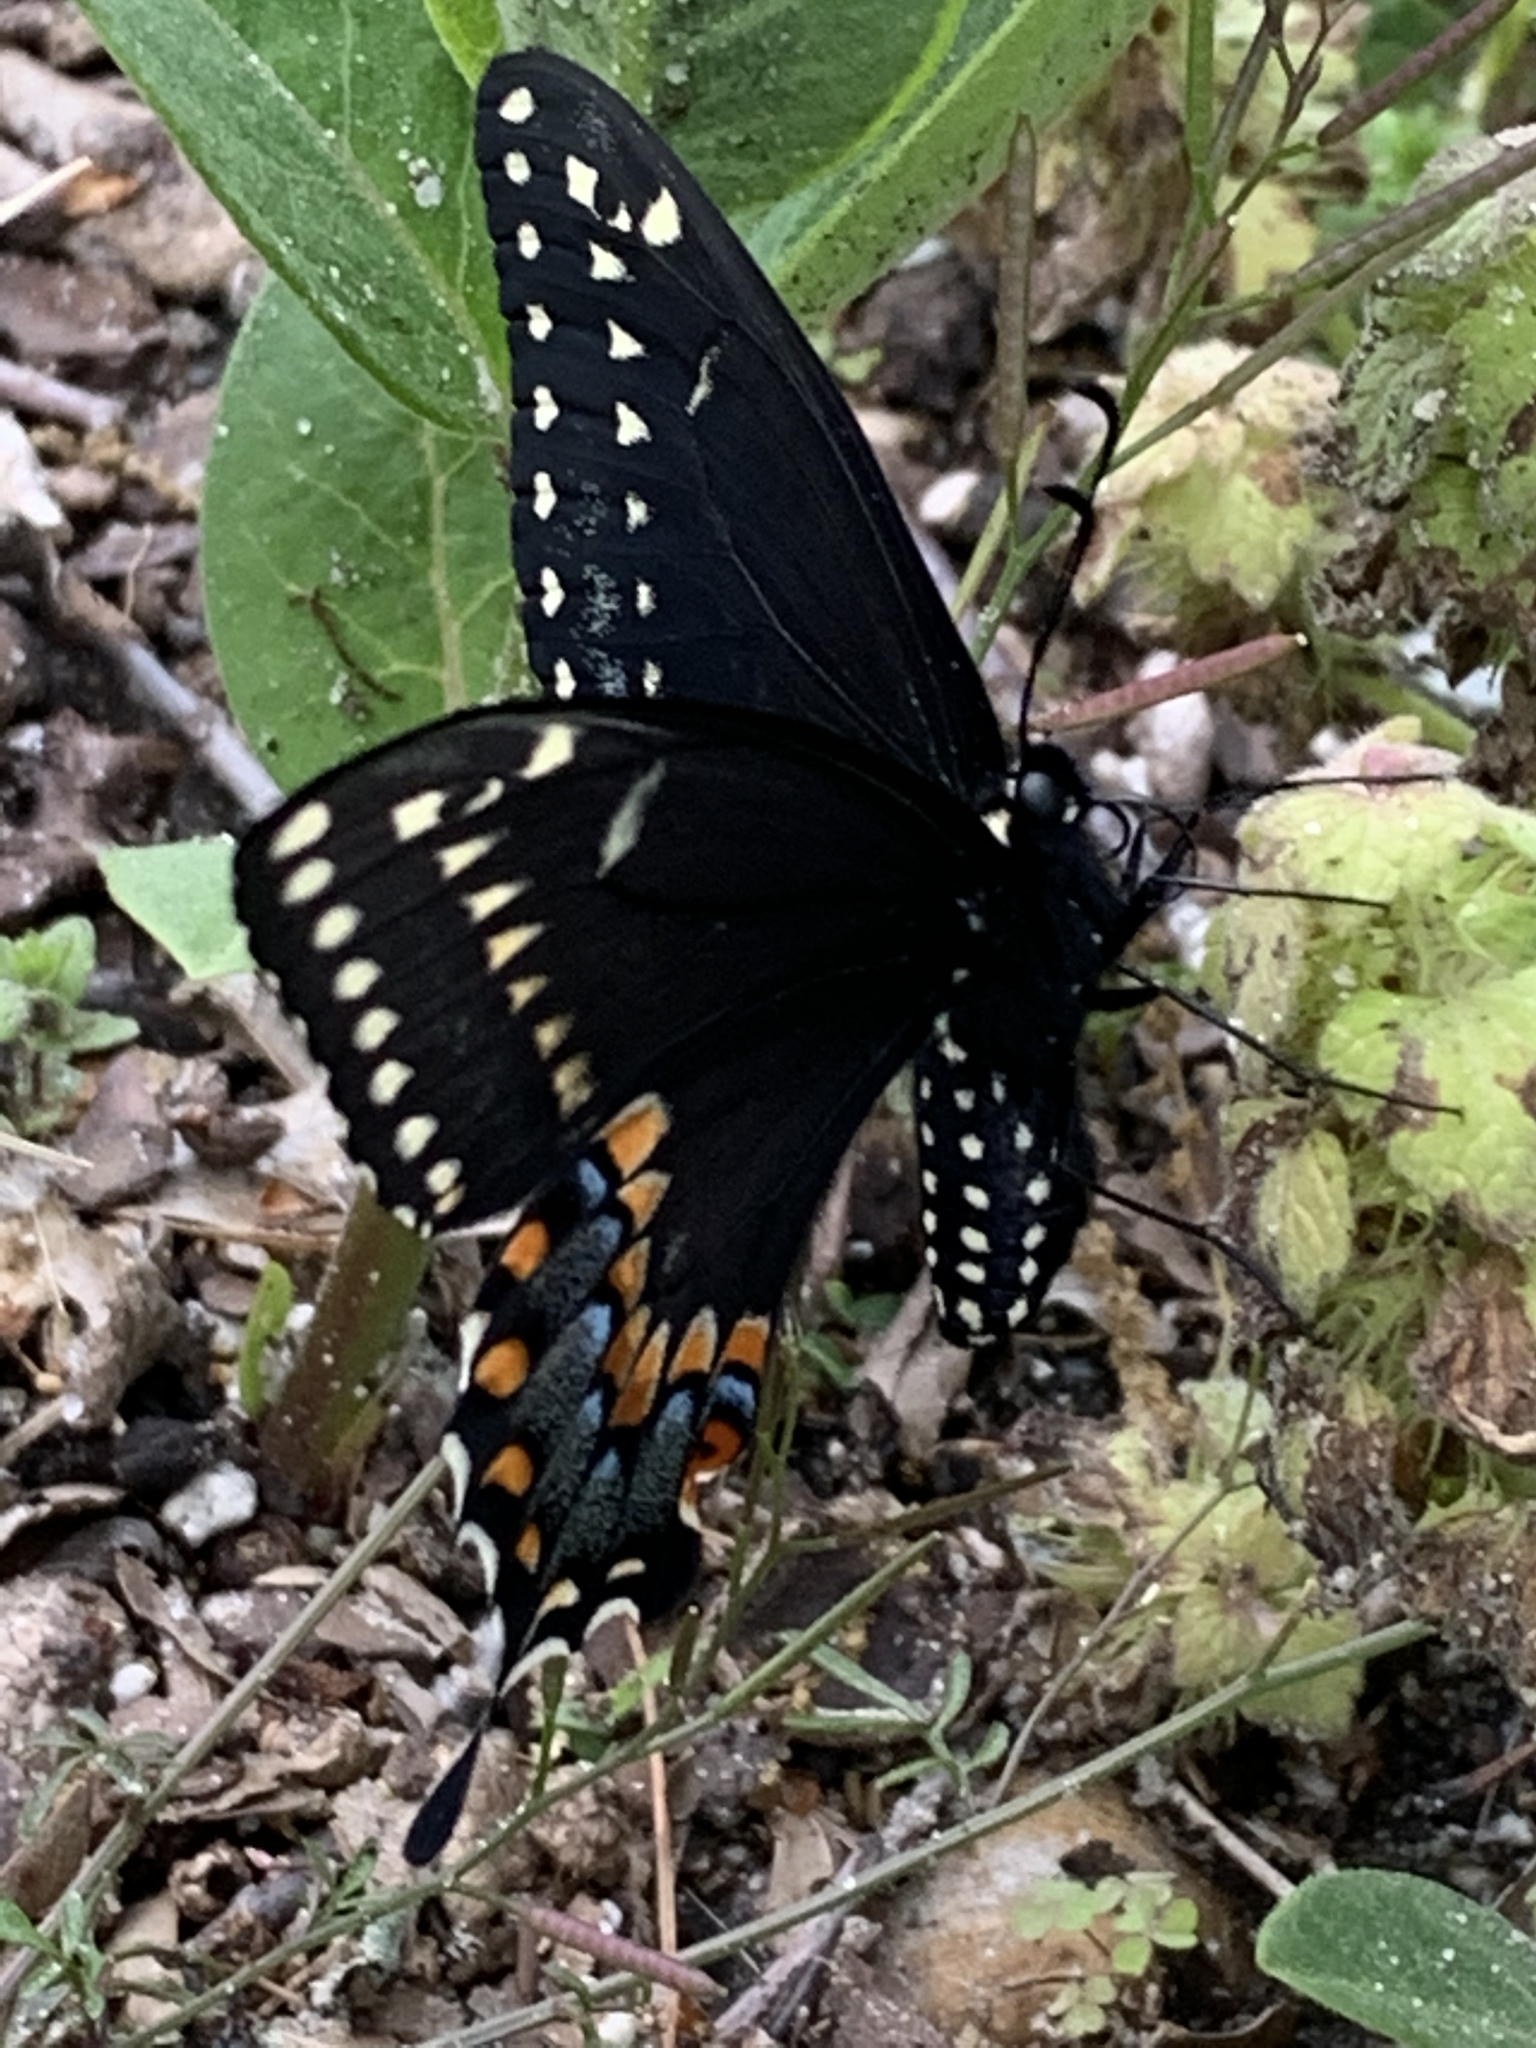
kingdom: Animalia
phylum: Arthropoda
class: Insecta
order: Lepidoptera
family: Papilionidae
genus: Papilio
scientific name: Papilio polyxenes
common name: Black swallowtail
